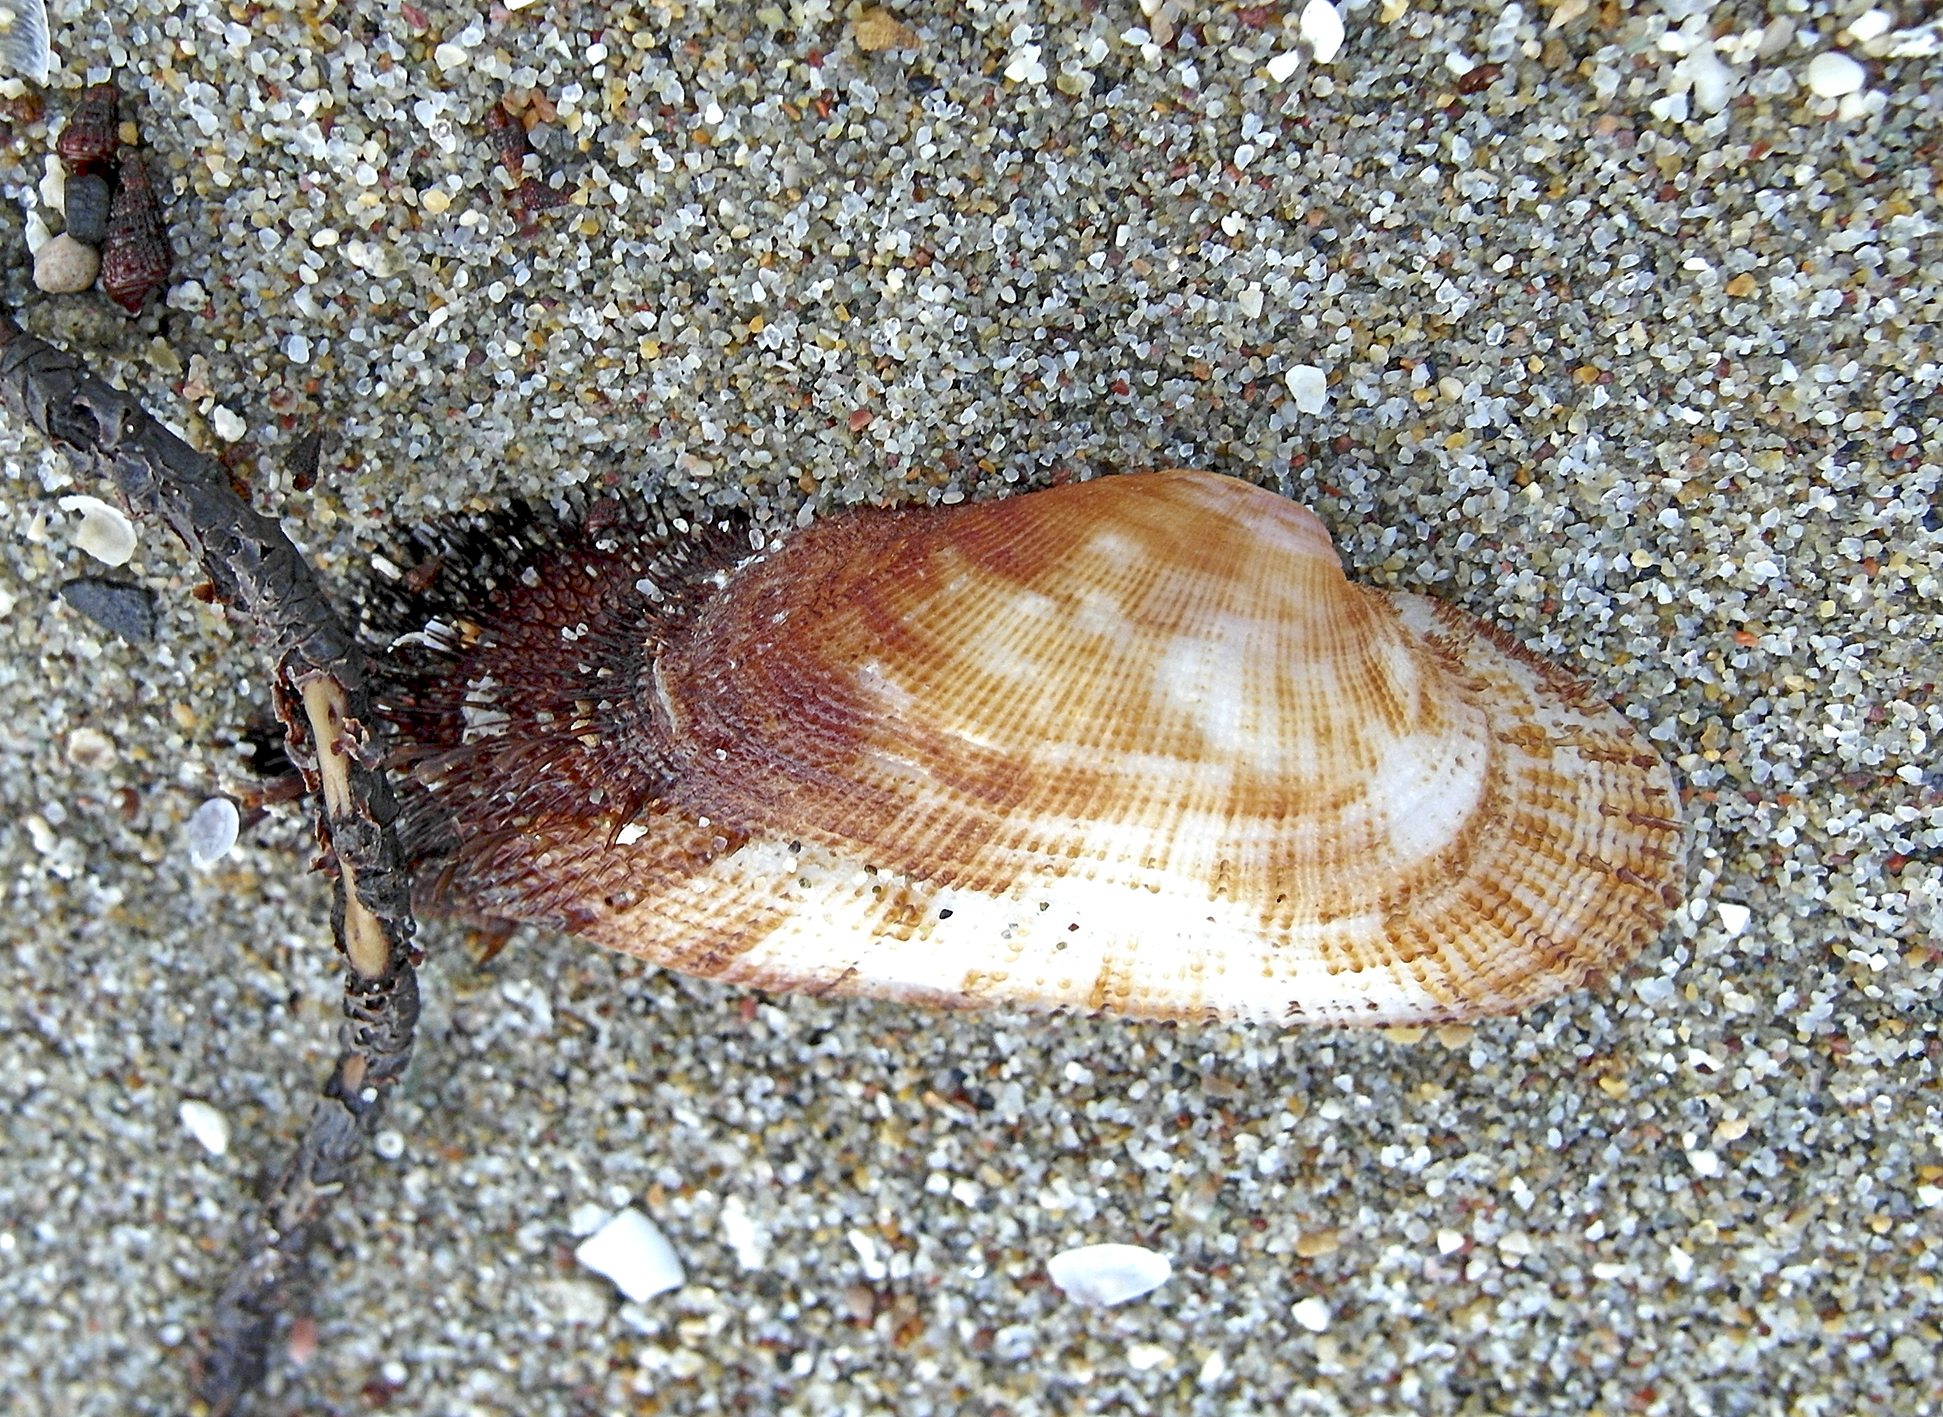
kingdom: Animalia
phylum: Mollusca
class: Bivalvia
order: Arcida
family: Arcidae
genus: Barbatia
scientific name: Barbatia barbata
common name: Bearded ark
